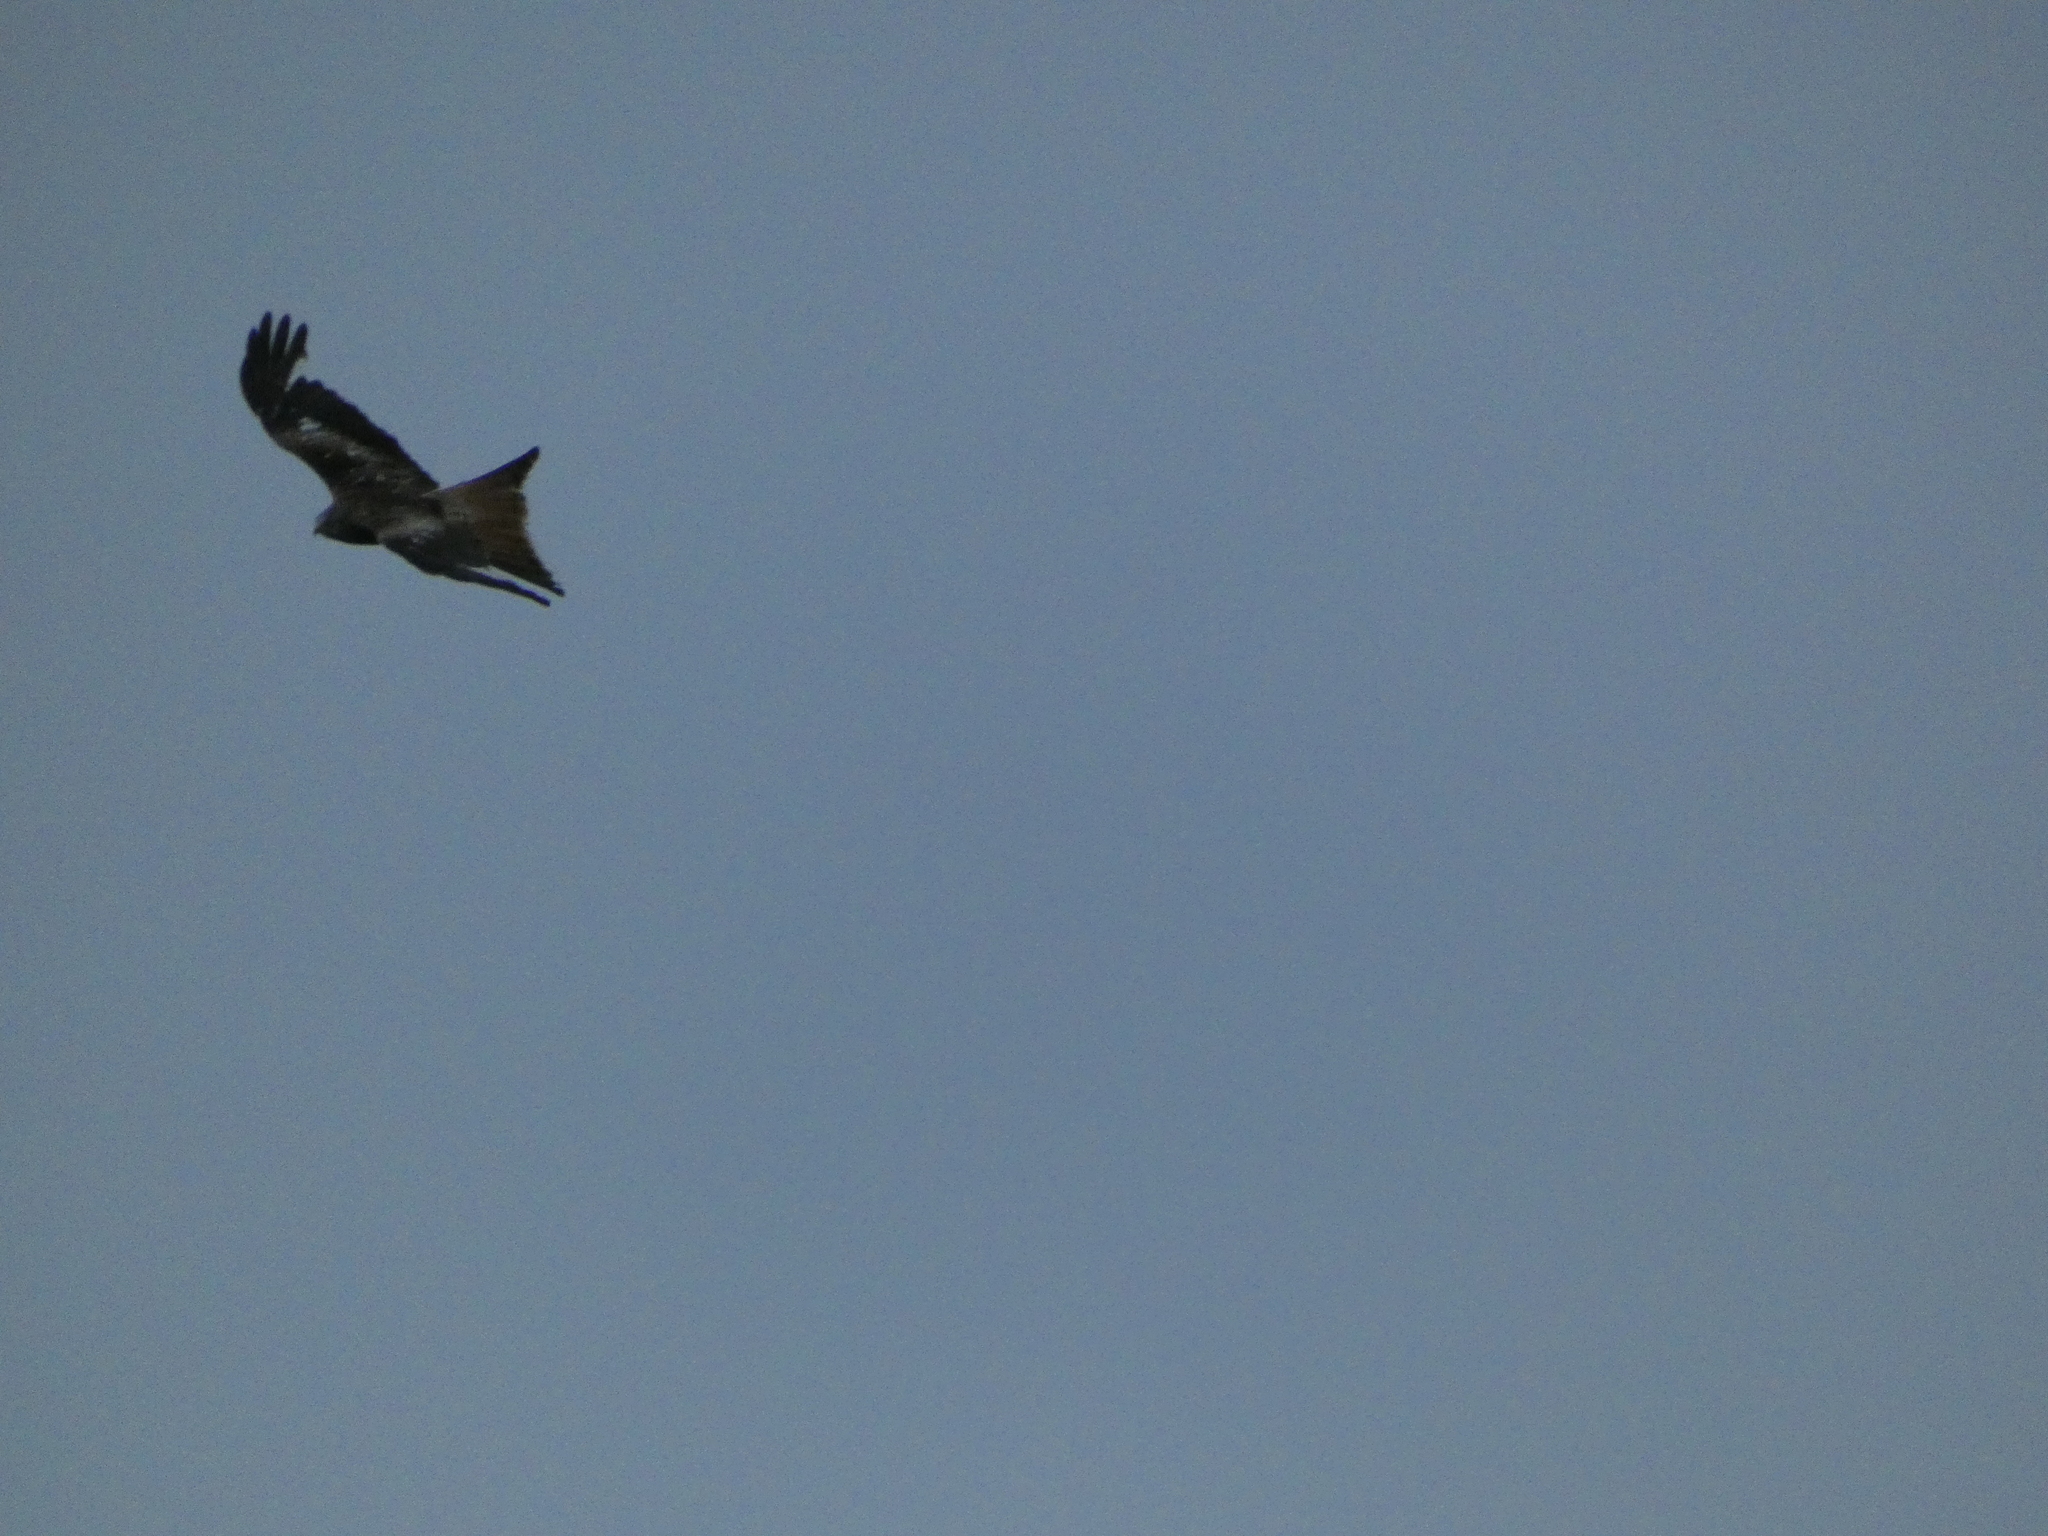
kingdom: Animalia
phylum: Chordata
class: Aves
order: Accipitriformes
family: Accipitridae
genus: Milvus
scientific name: Milvus milvus
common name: Red kite
